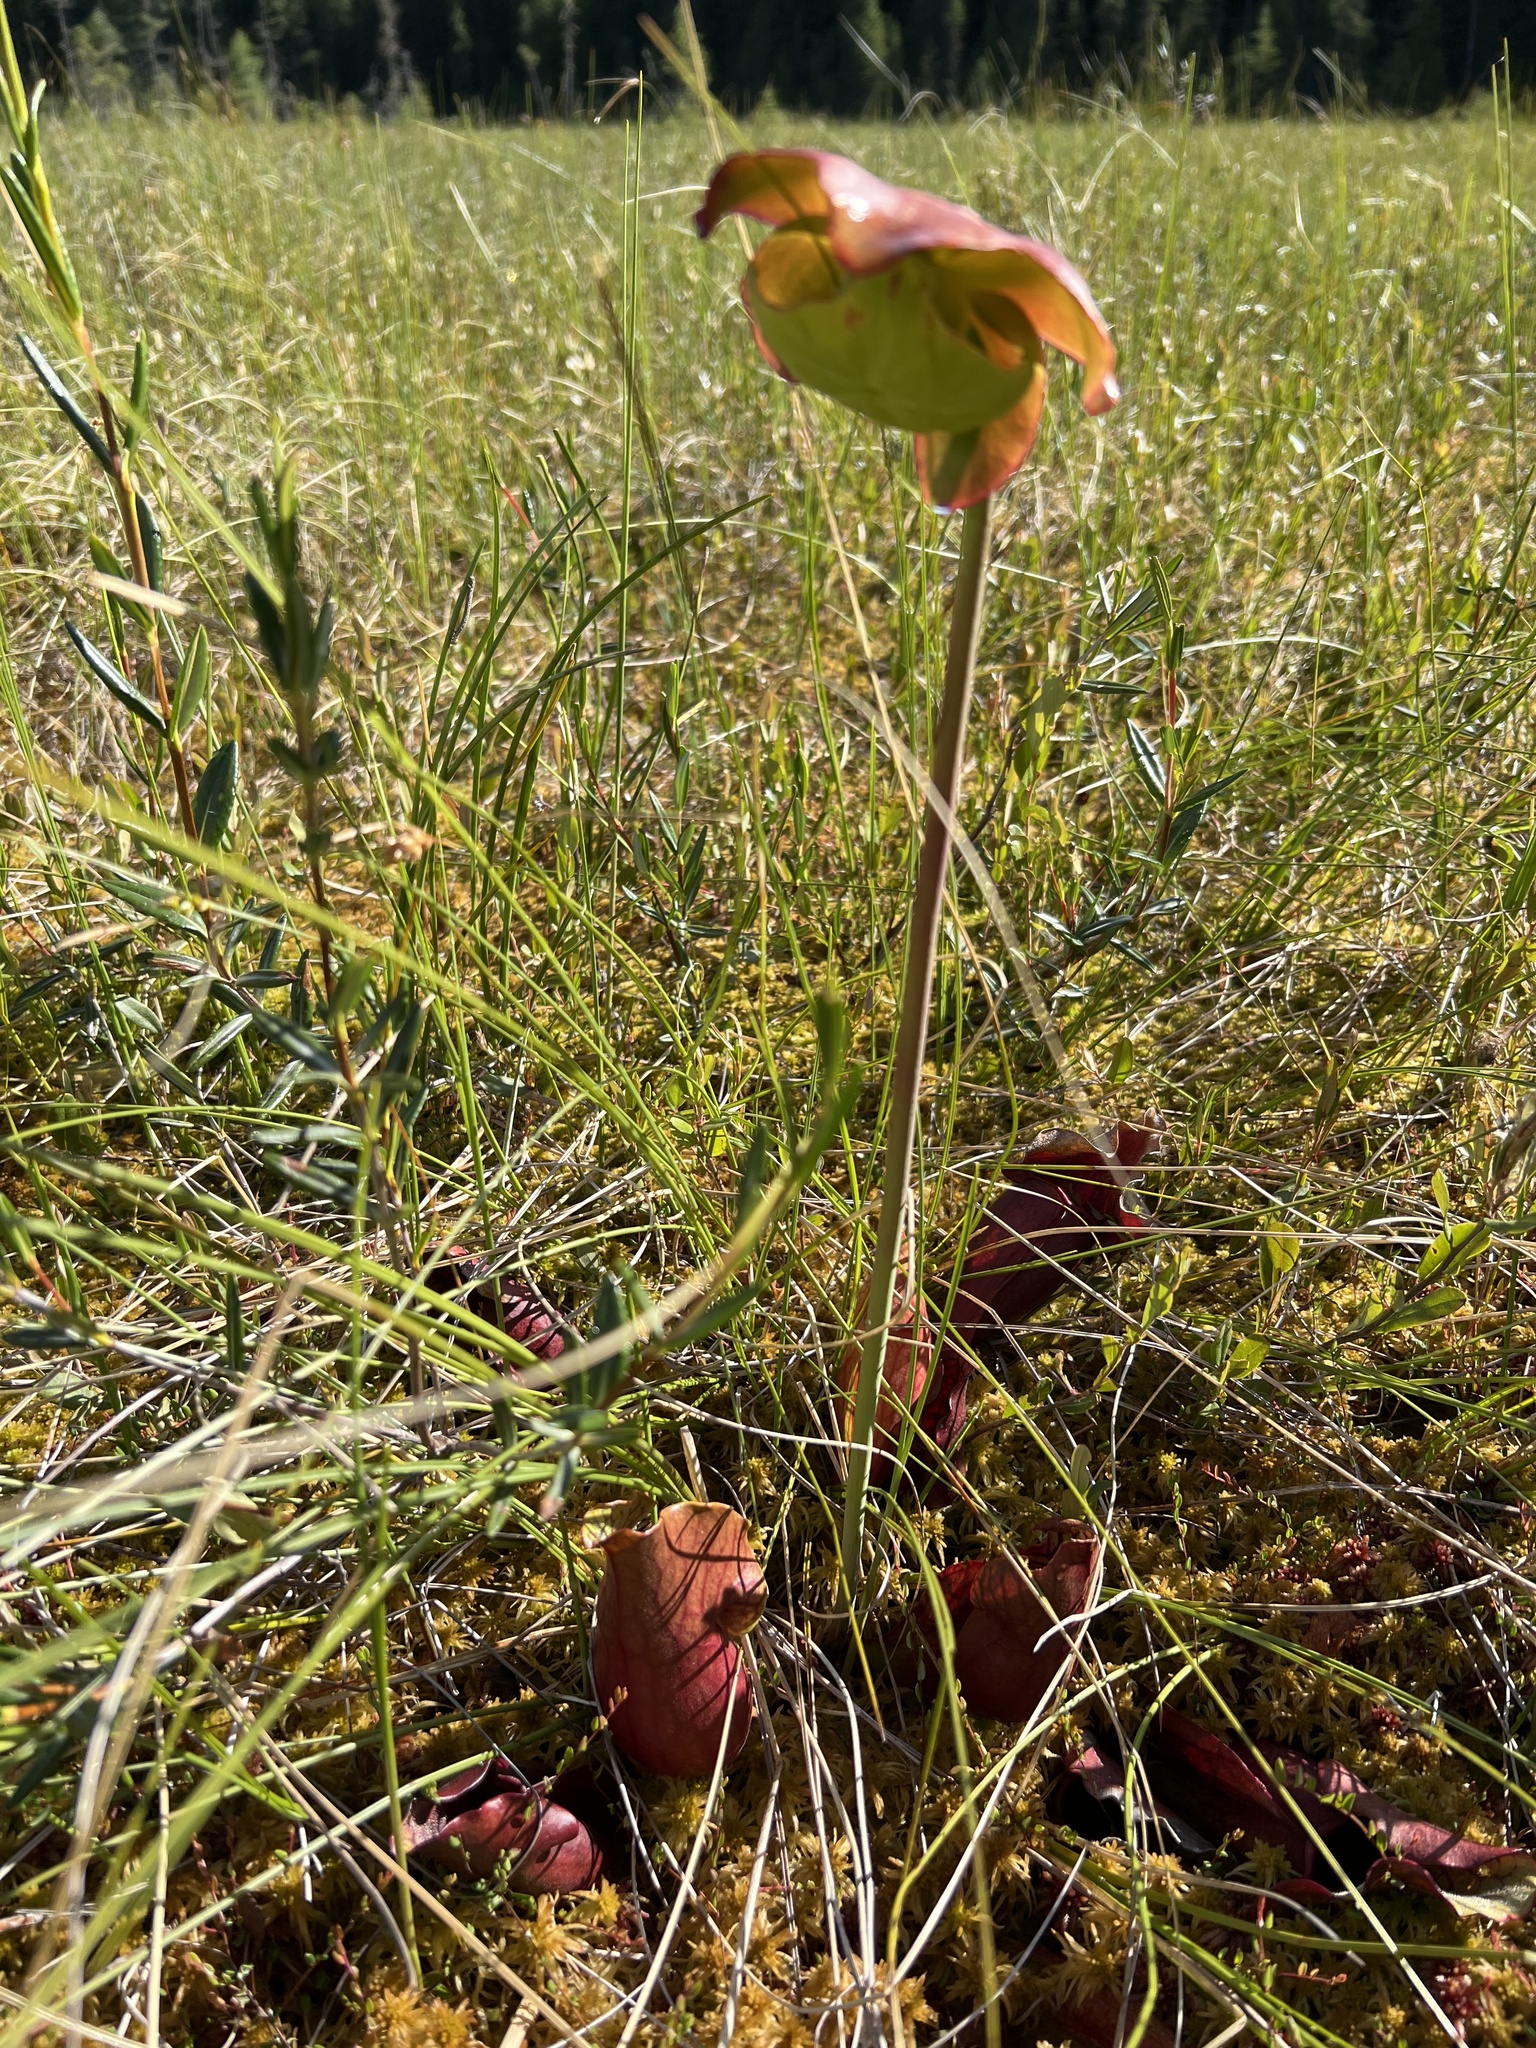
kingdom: Plantae
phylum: Tracheophyta
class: Magnoliopsida
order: Ericales
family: Sarraceniaceae
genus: Sarracenia
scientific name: Sarracenia purpurea
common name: Pitcherplant
